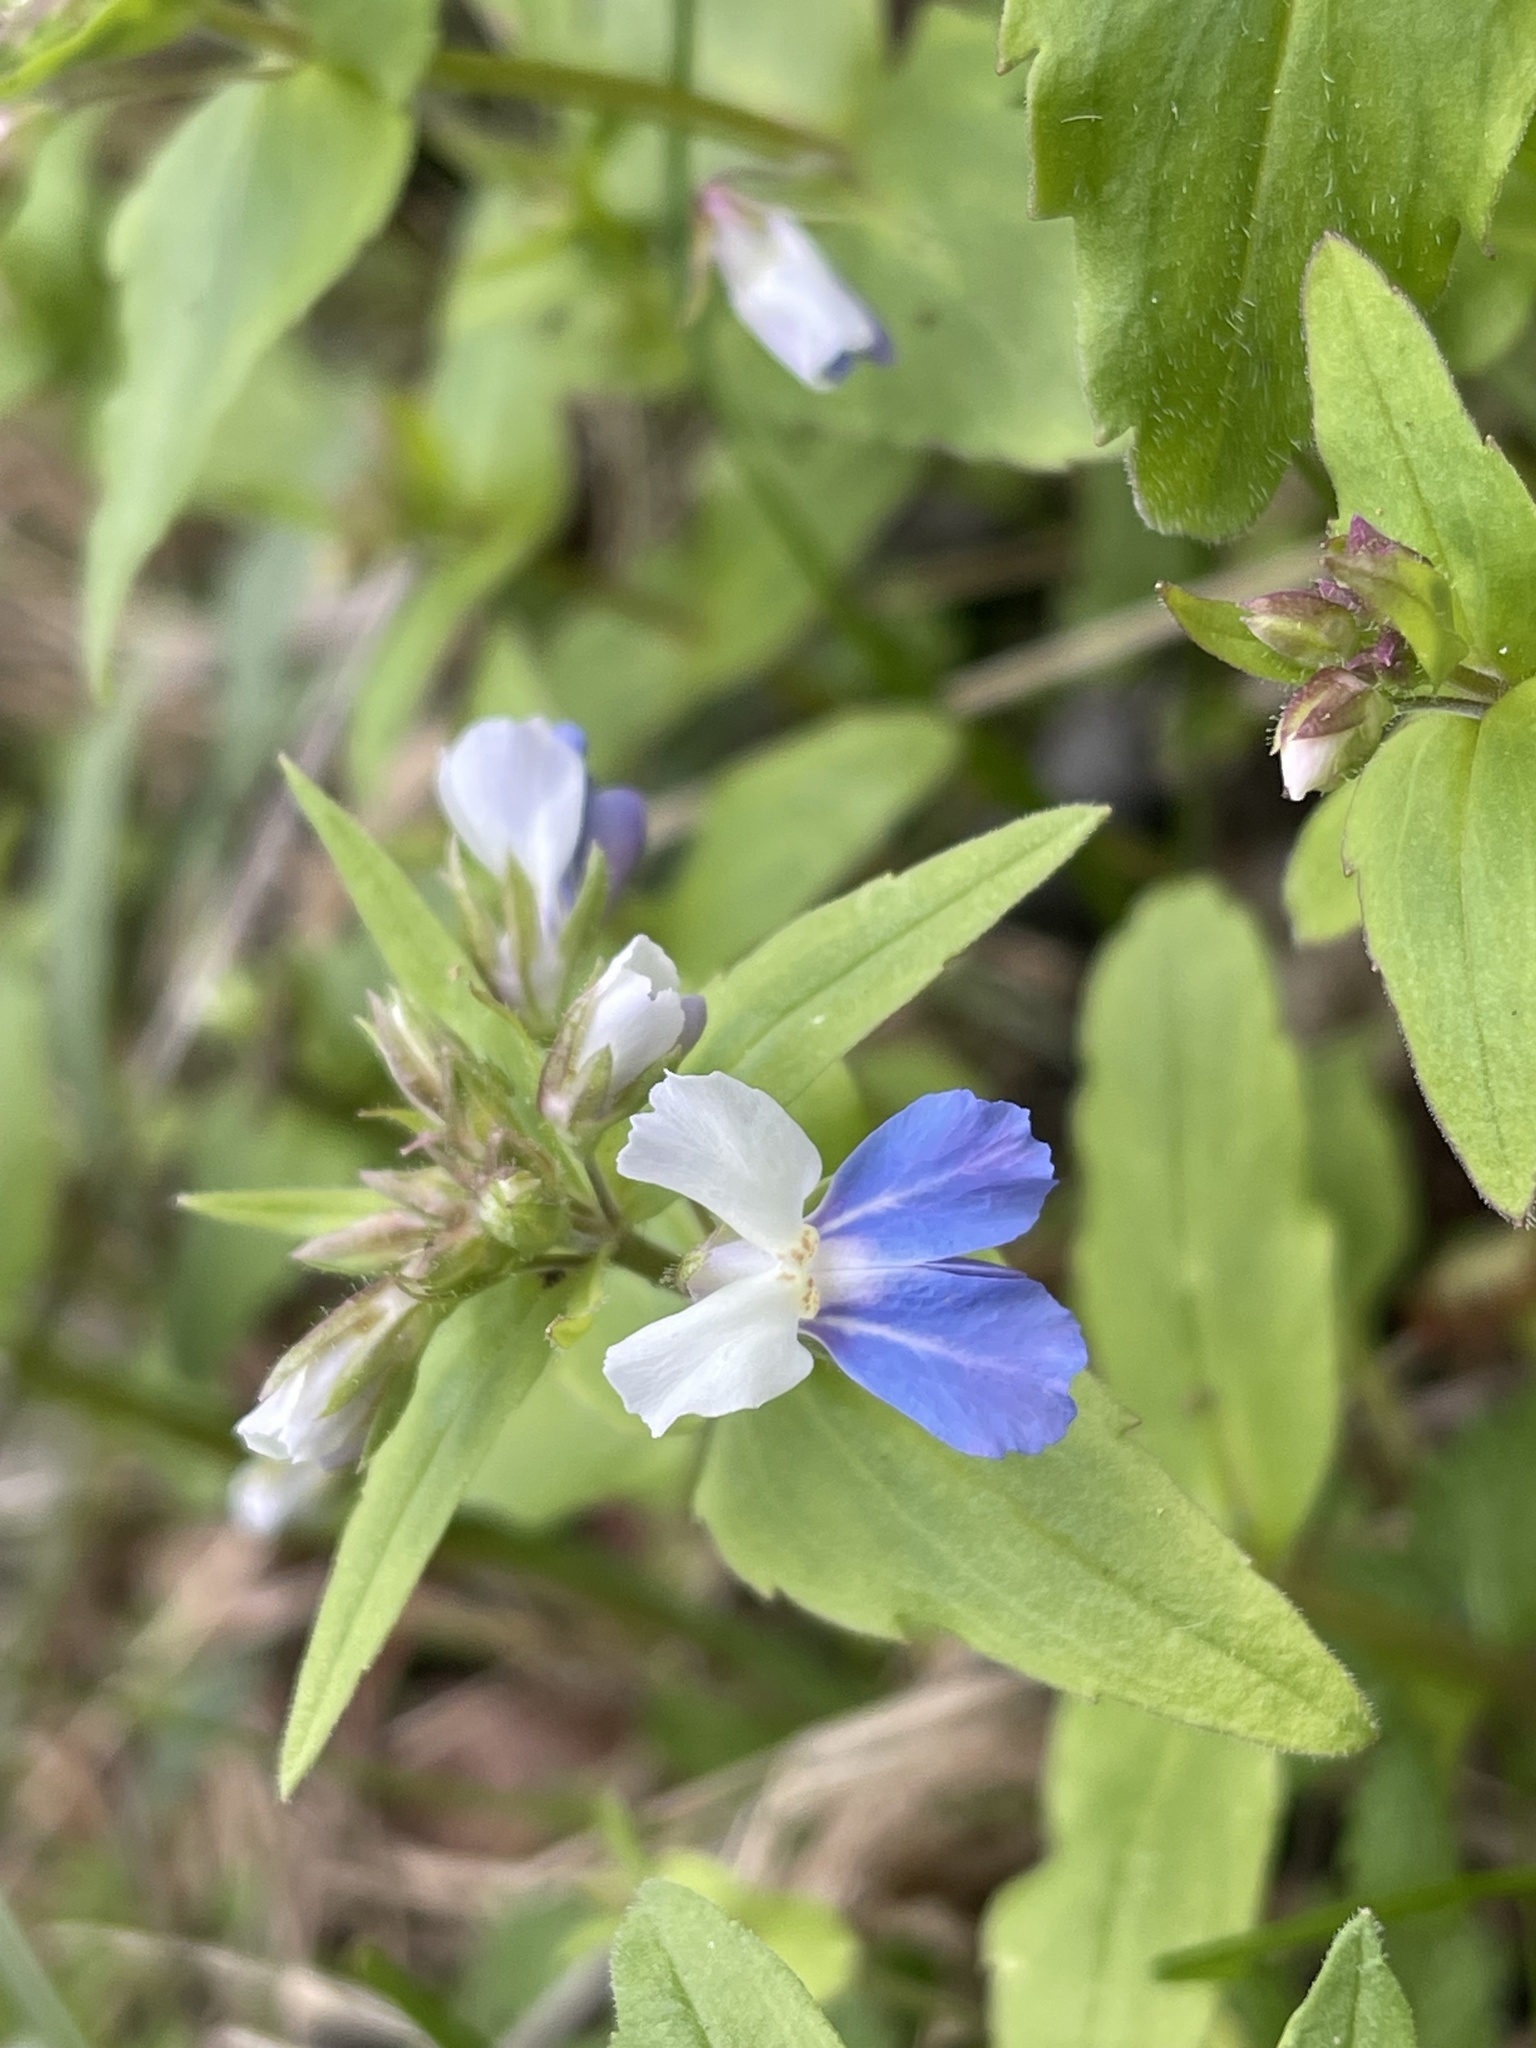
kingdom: Plantae
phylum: Tracheophyta
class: Magnoliopsida
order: Lamiales
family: Plantaginaceae
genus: Collinsia
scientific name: Collinsia verna
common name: Broad-leaved collinsia
